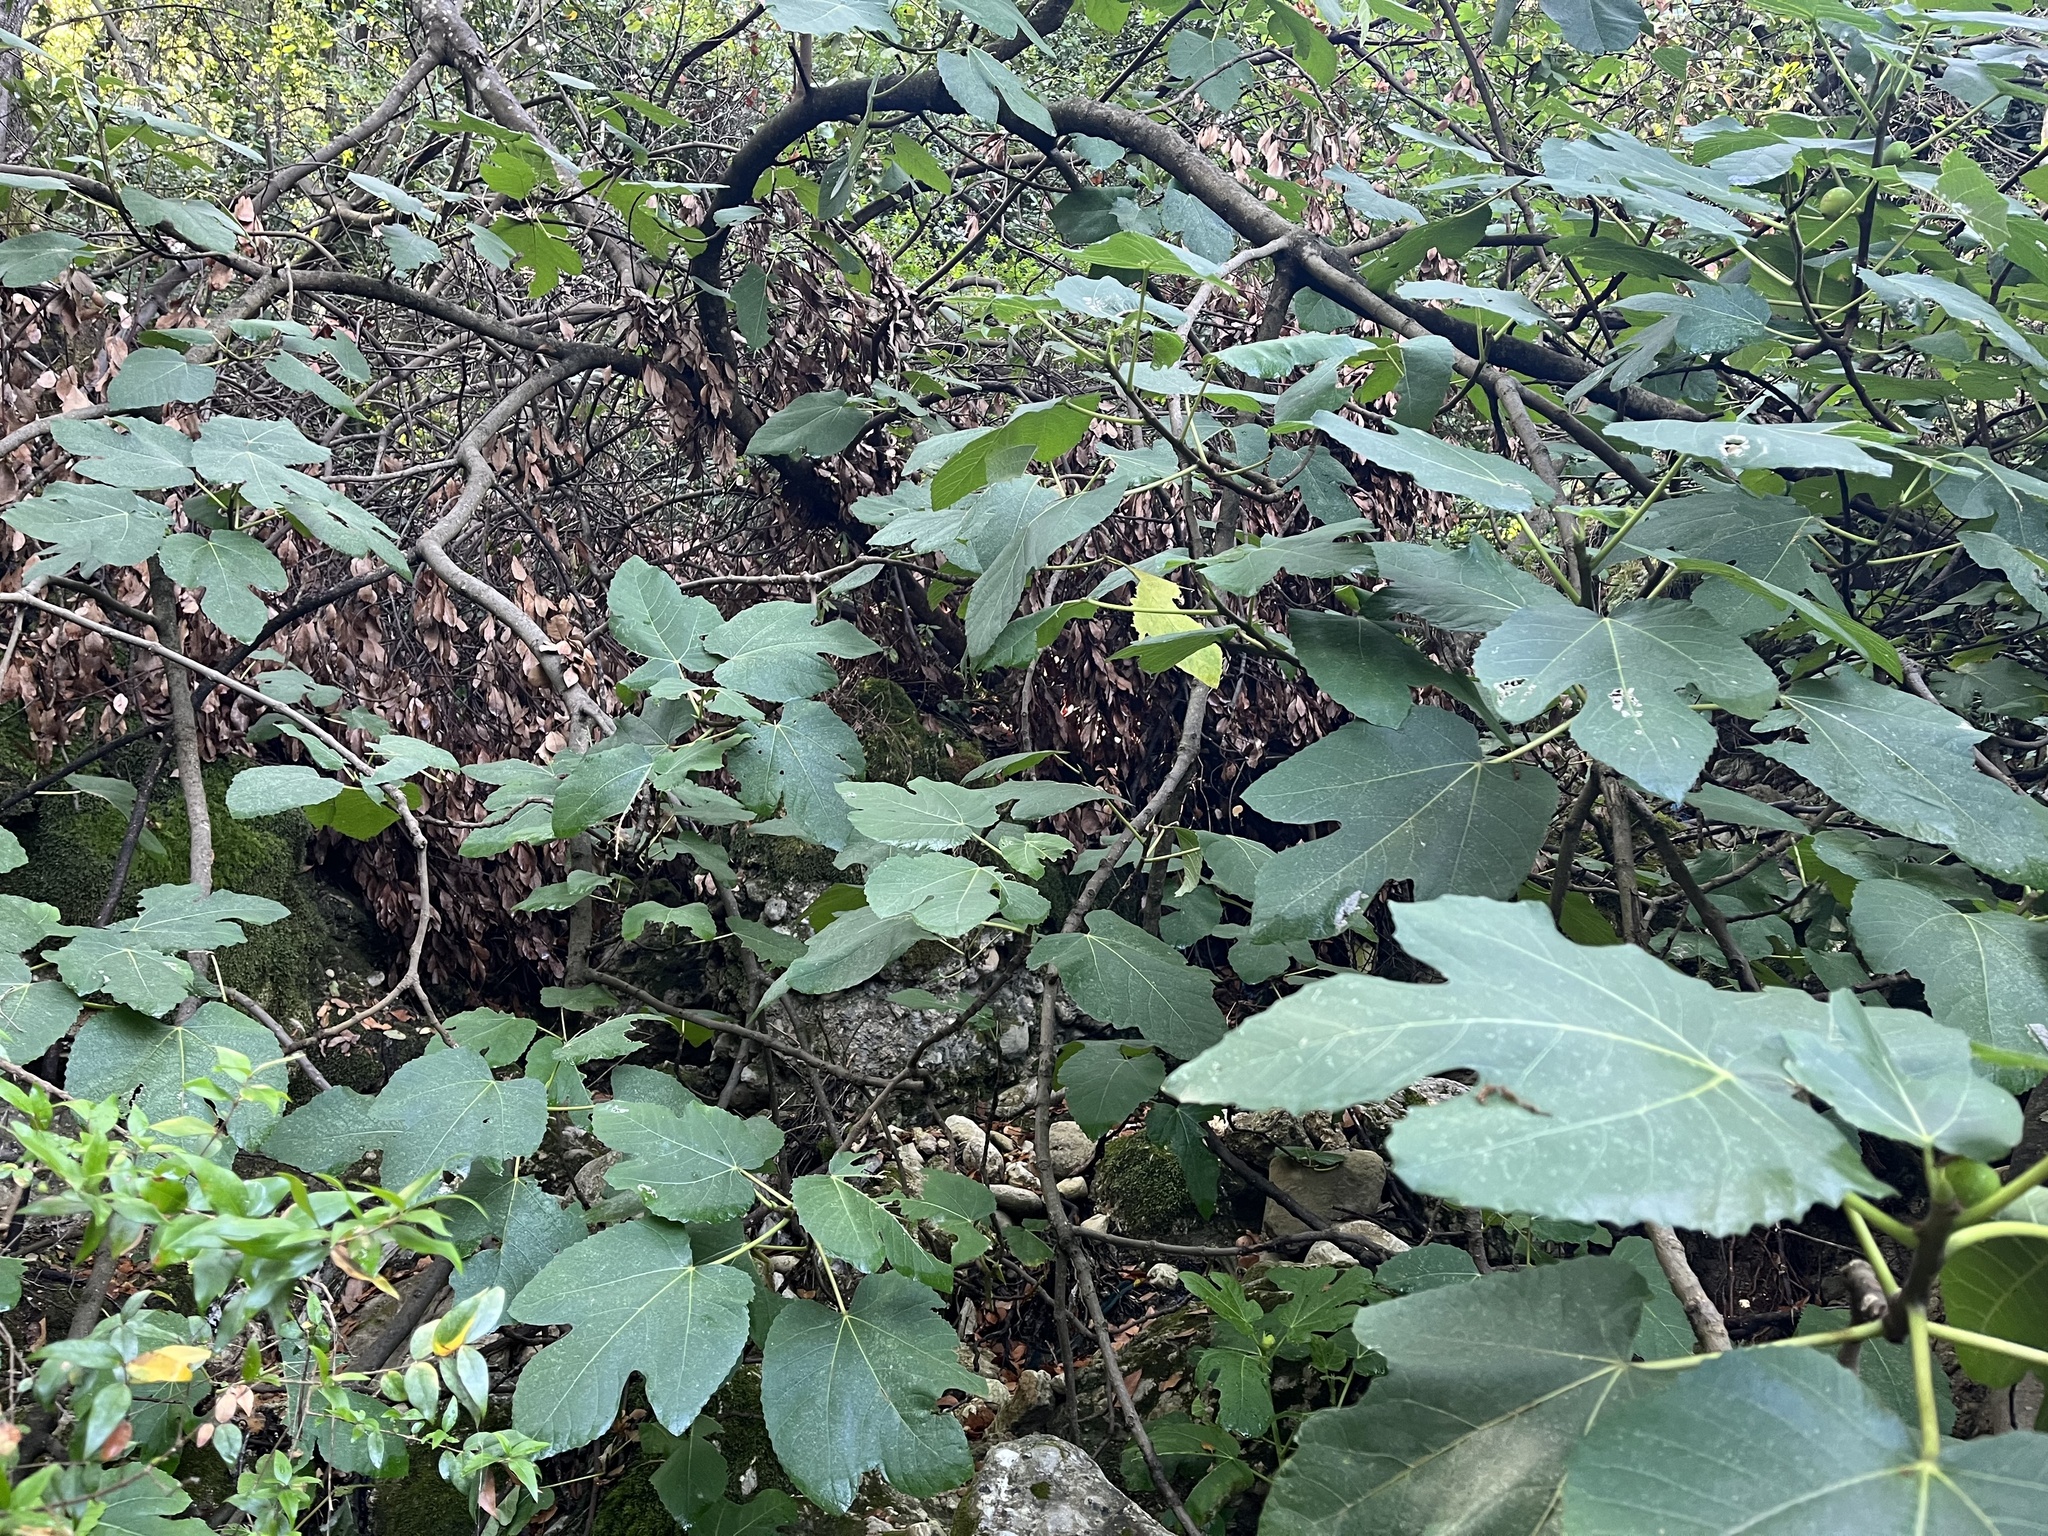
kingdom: Plantae
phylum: Tracheophyta
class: Magnoliopsida
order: Rosales
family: Moraceae
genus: Ficus
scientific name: Ficus carica
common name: Fig
